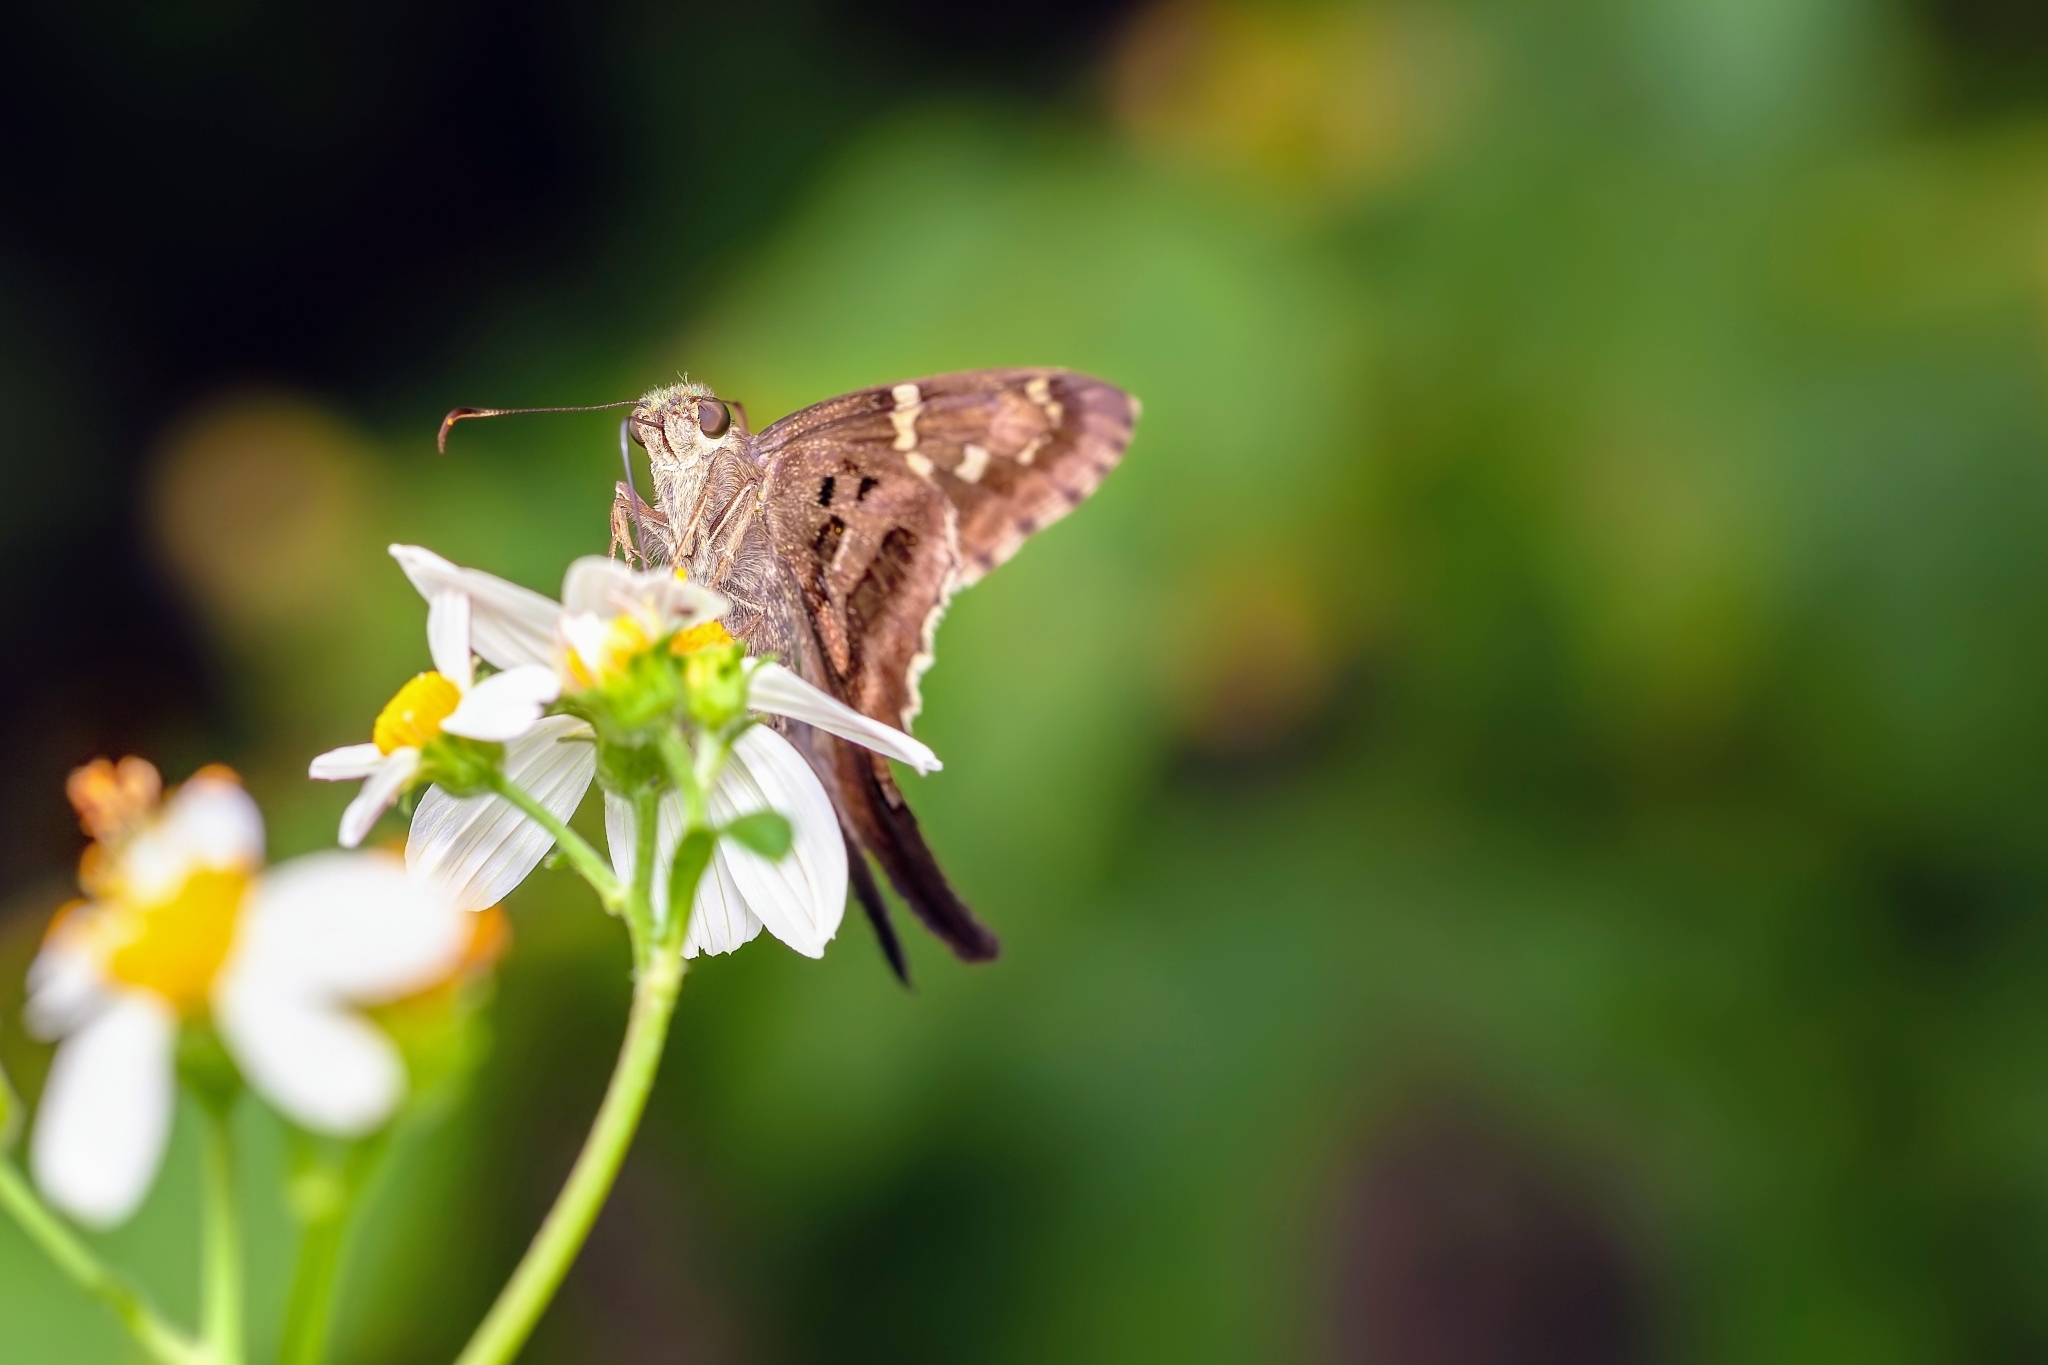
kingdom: Animalia
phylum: Arthropoda
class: Insecta
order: Lepidoptera
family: Hesperiidae
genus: Urbanus
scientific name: Urbanus proteus
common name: Long-tailed skipper
